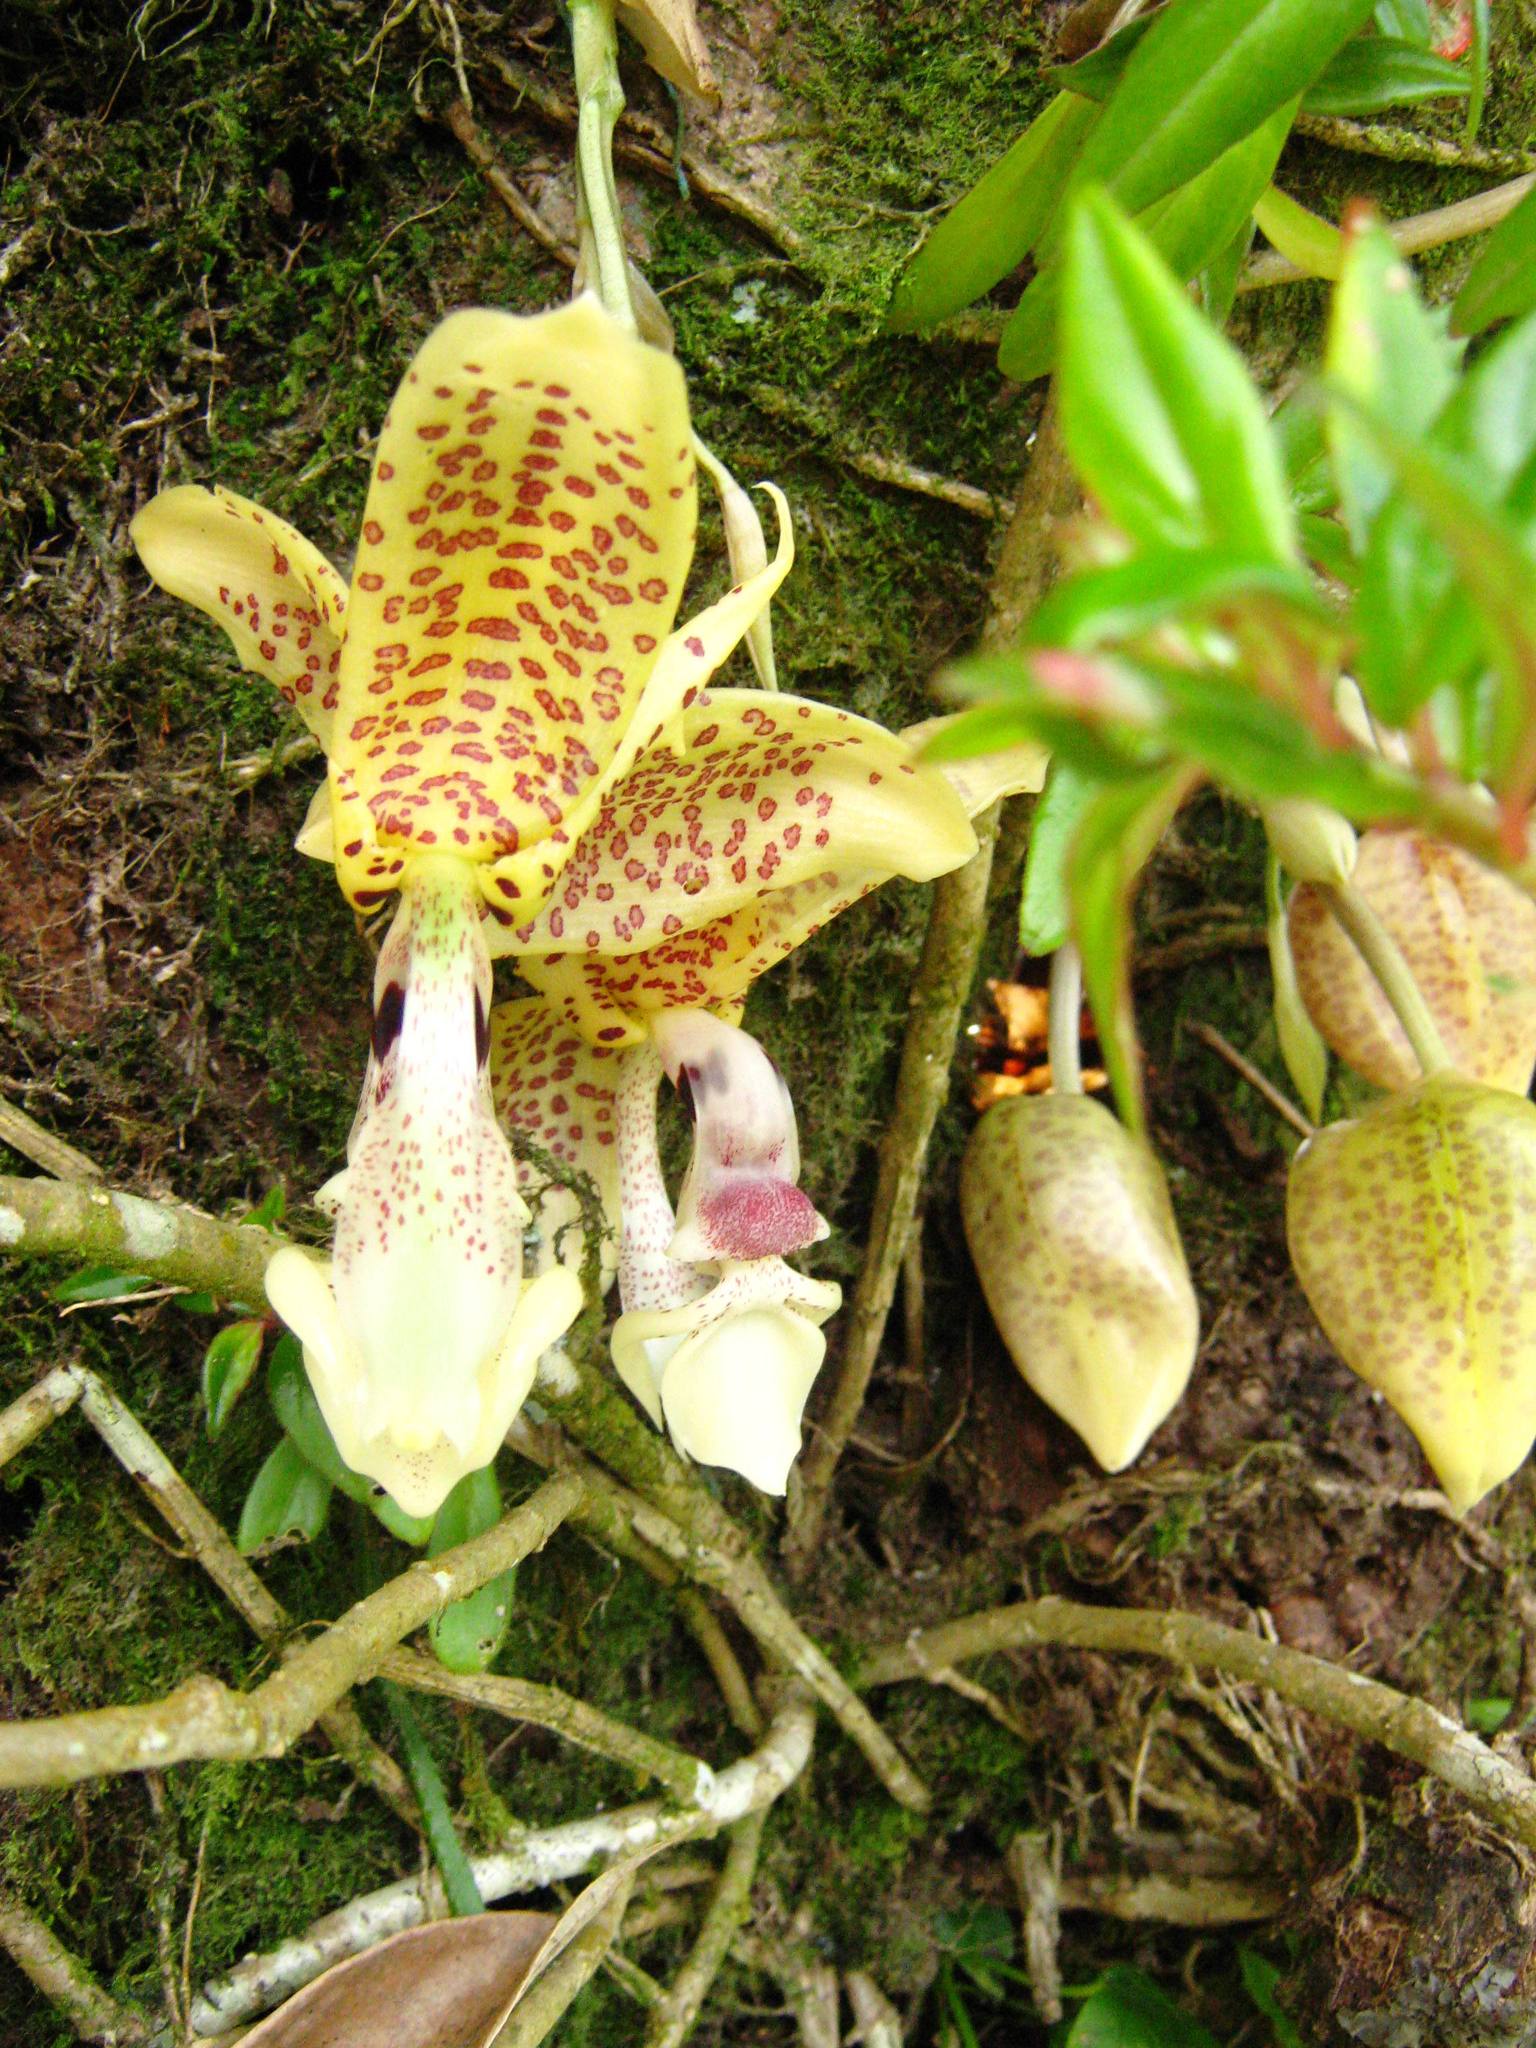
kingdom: Plantae
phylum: Tracheophyta
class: Liliopsida
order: Asparagales
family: Orchidaceae
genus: Stanhopea
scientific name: Stanhopea dodsoniana
